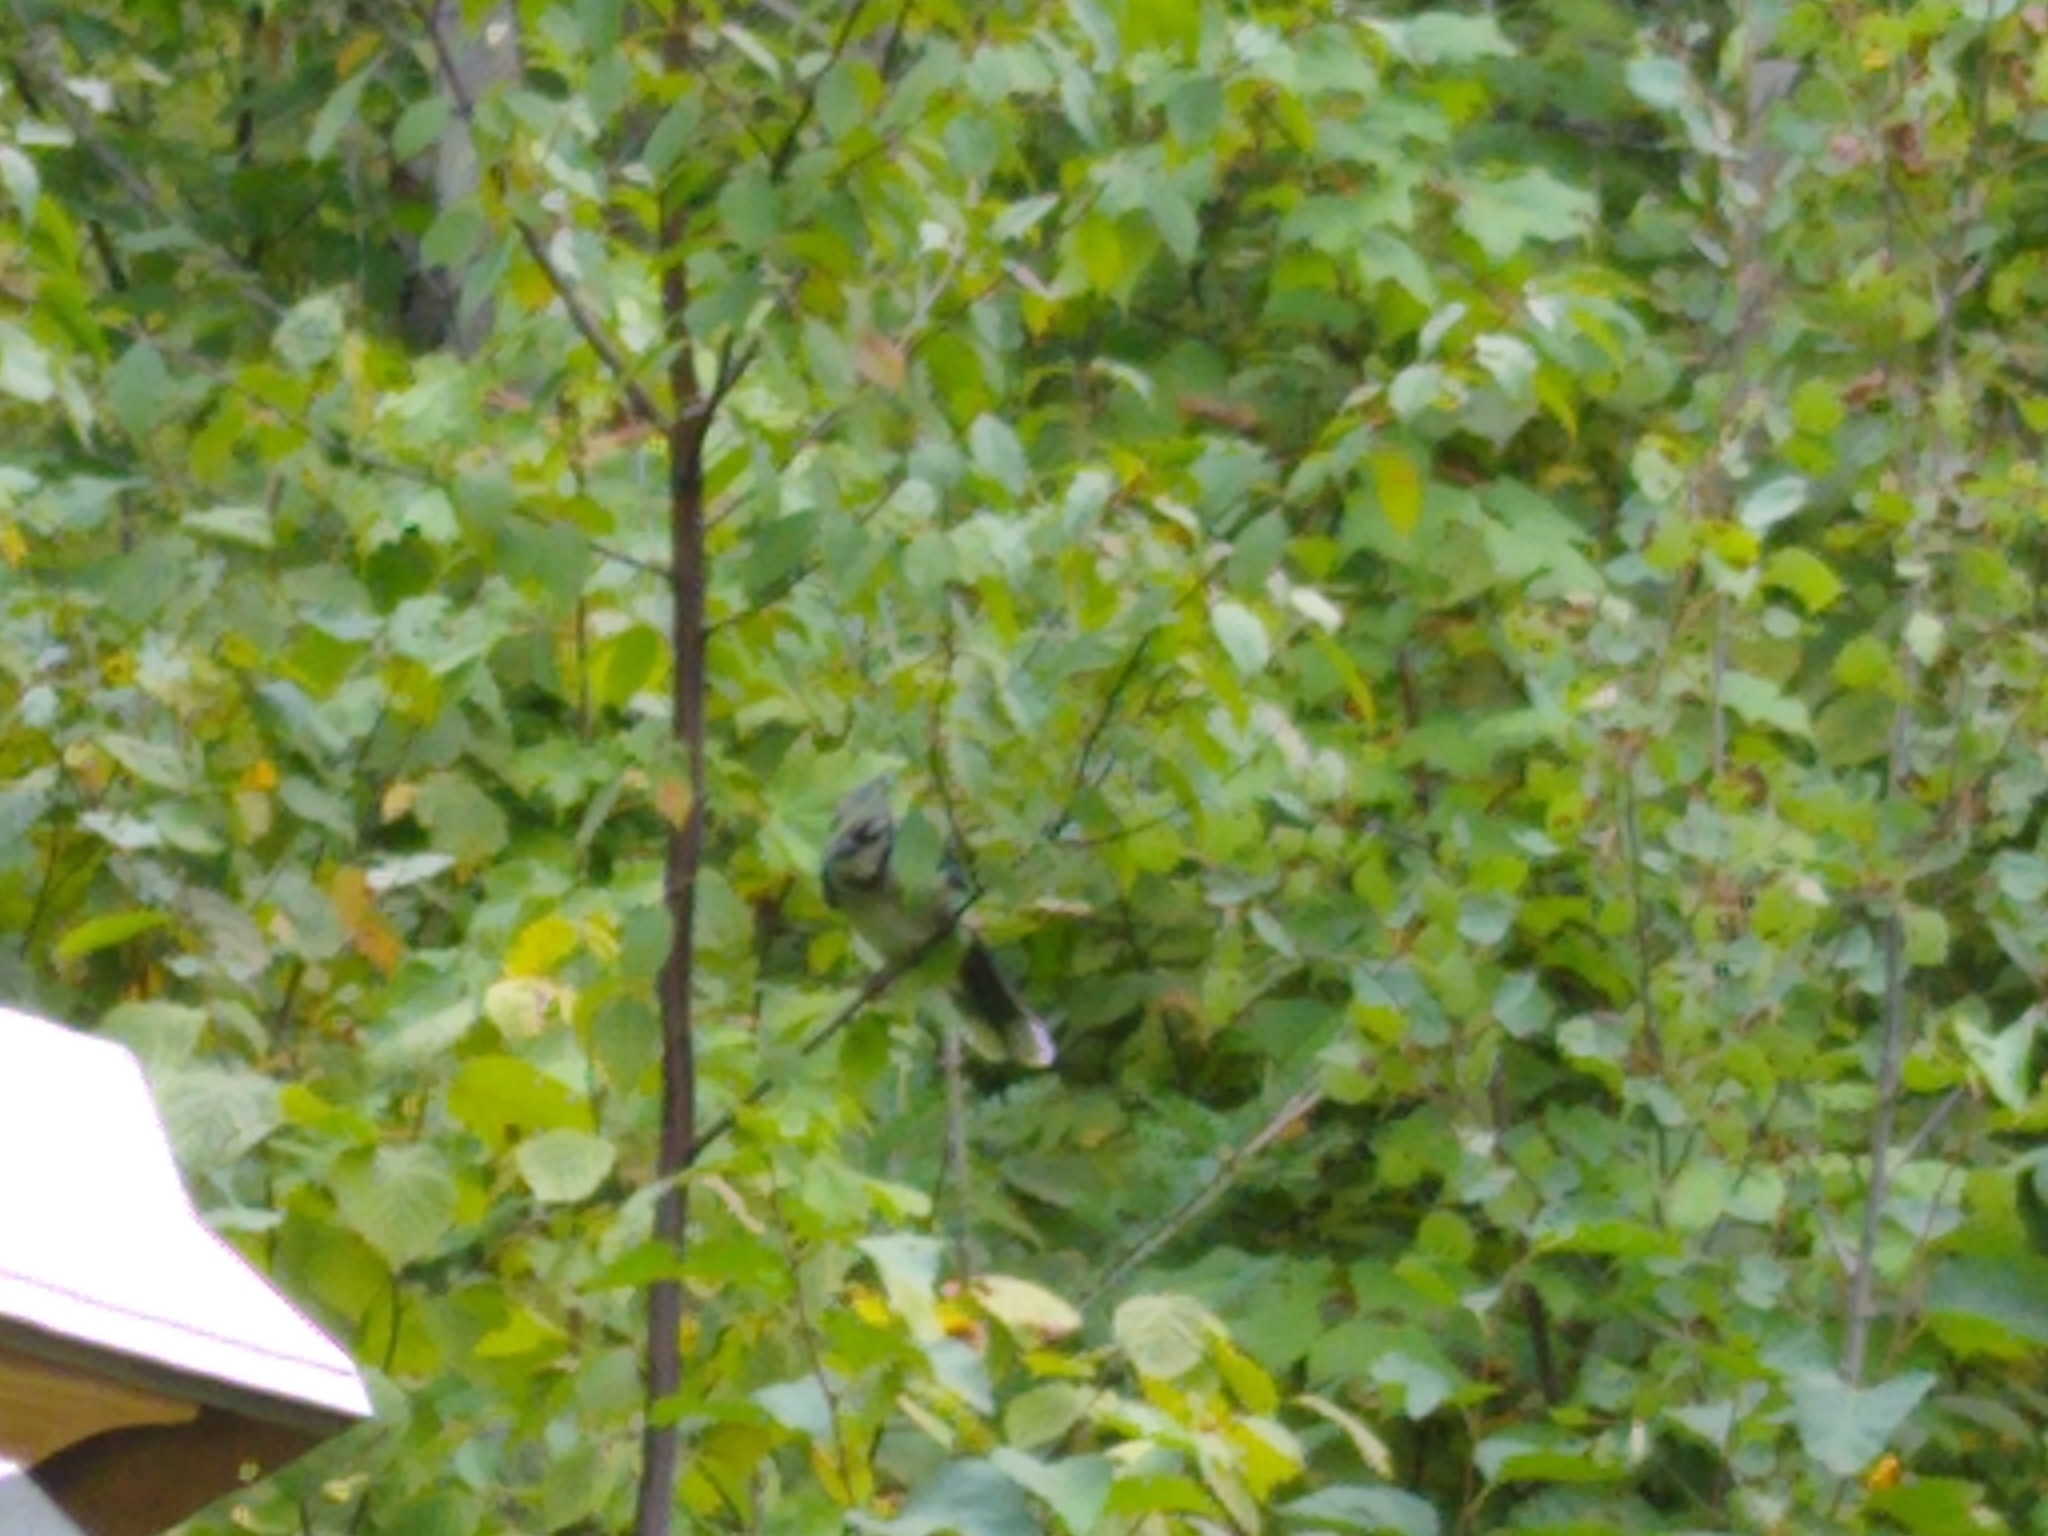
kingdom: Animalia
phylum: Chordata
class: Aves
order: Passeriformes
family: Corvidae
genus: Cyanocitta
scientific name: Cyanocitta cristata
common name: Blue jay
